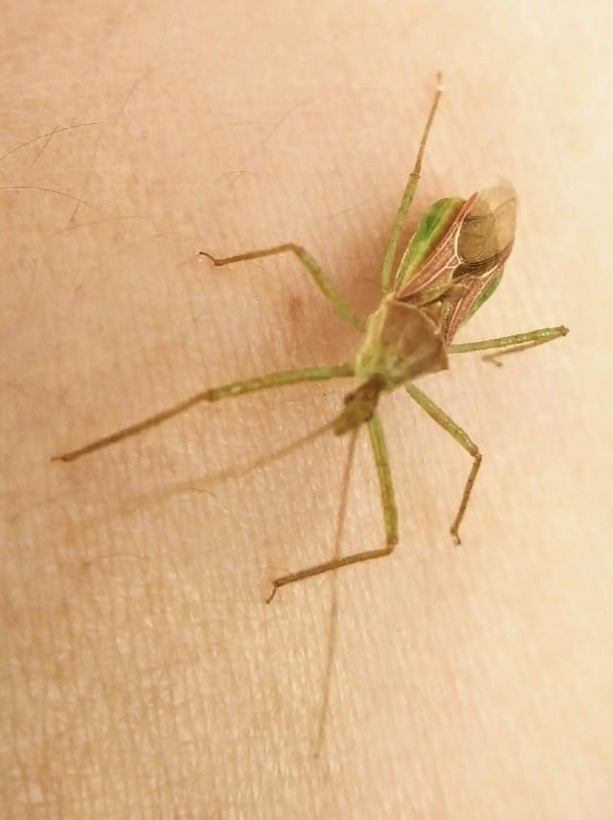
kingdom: Animalia
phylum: Arthropoda
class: Insecta
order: Hemiptera
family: Reduviidae
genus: Zelus
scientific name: Zelus renardii
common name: Assassin bug
